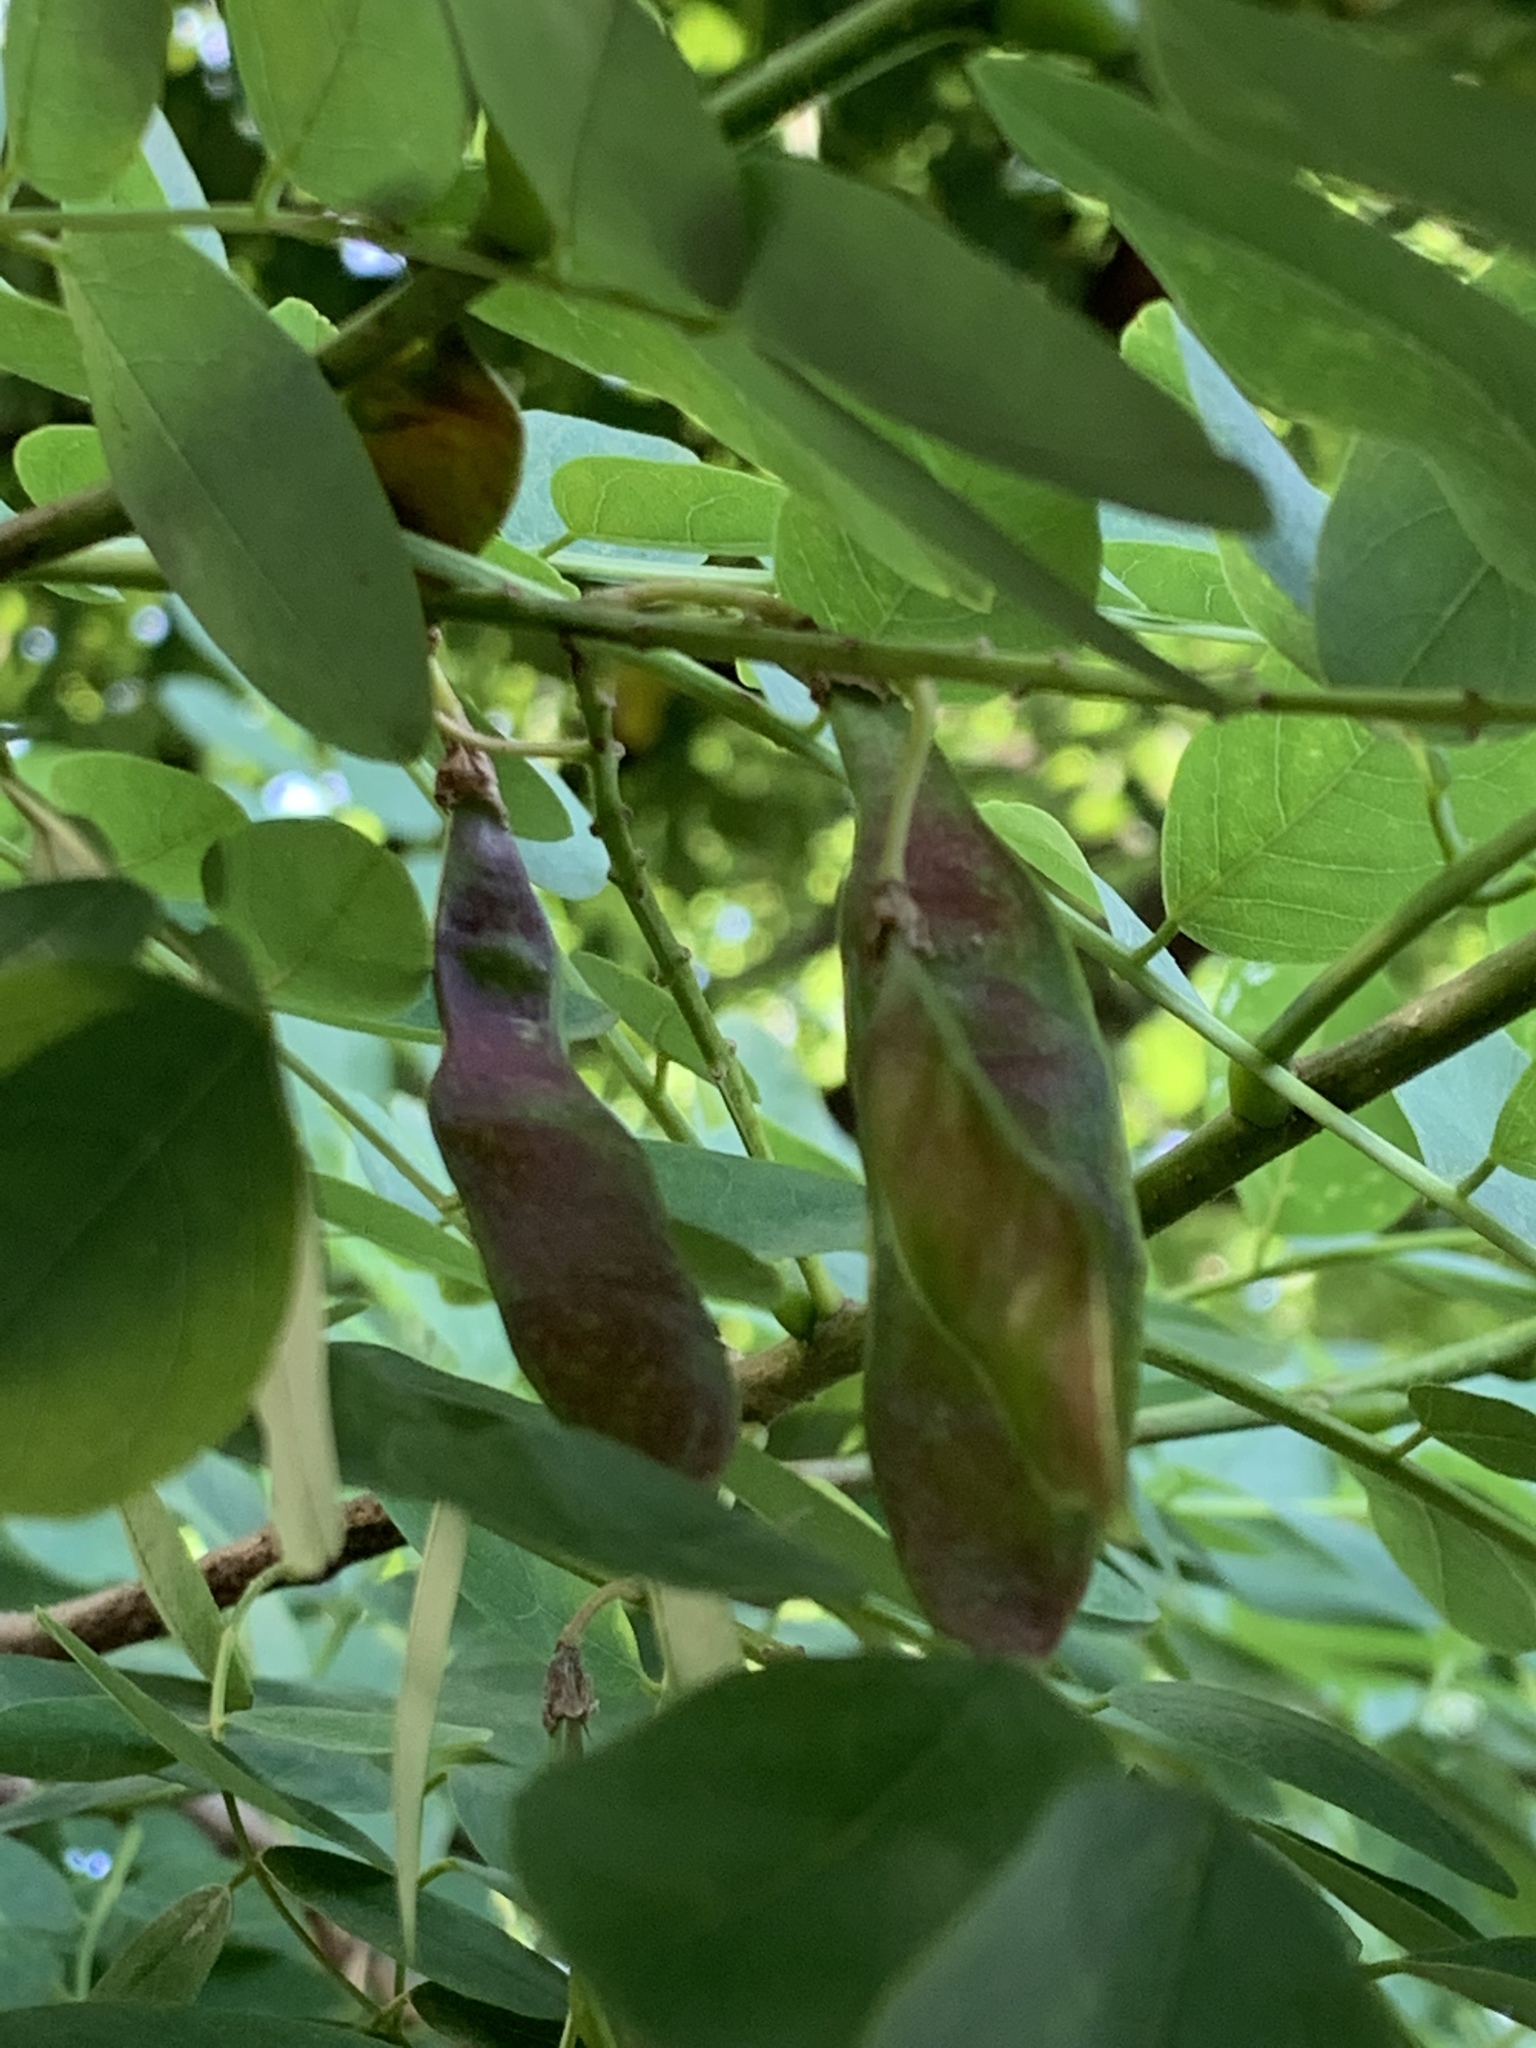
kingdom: Plantae
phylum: Tracheophyta
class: Magnoliopsida
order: Fabales
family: Fabaceae
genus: Robinia
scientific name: Robinia pseudoacacia
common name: Black locust
